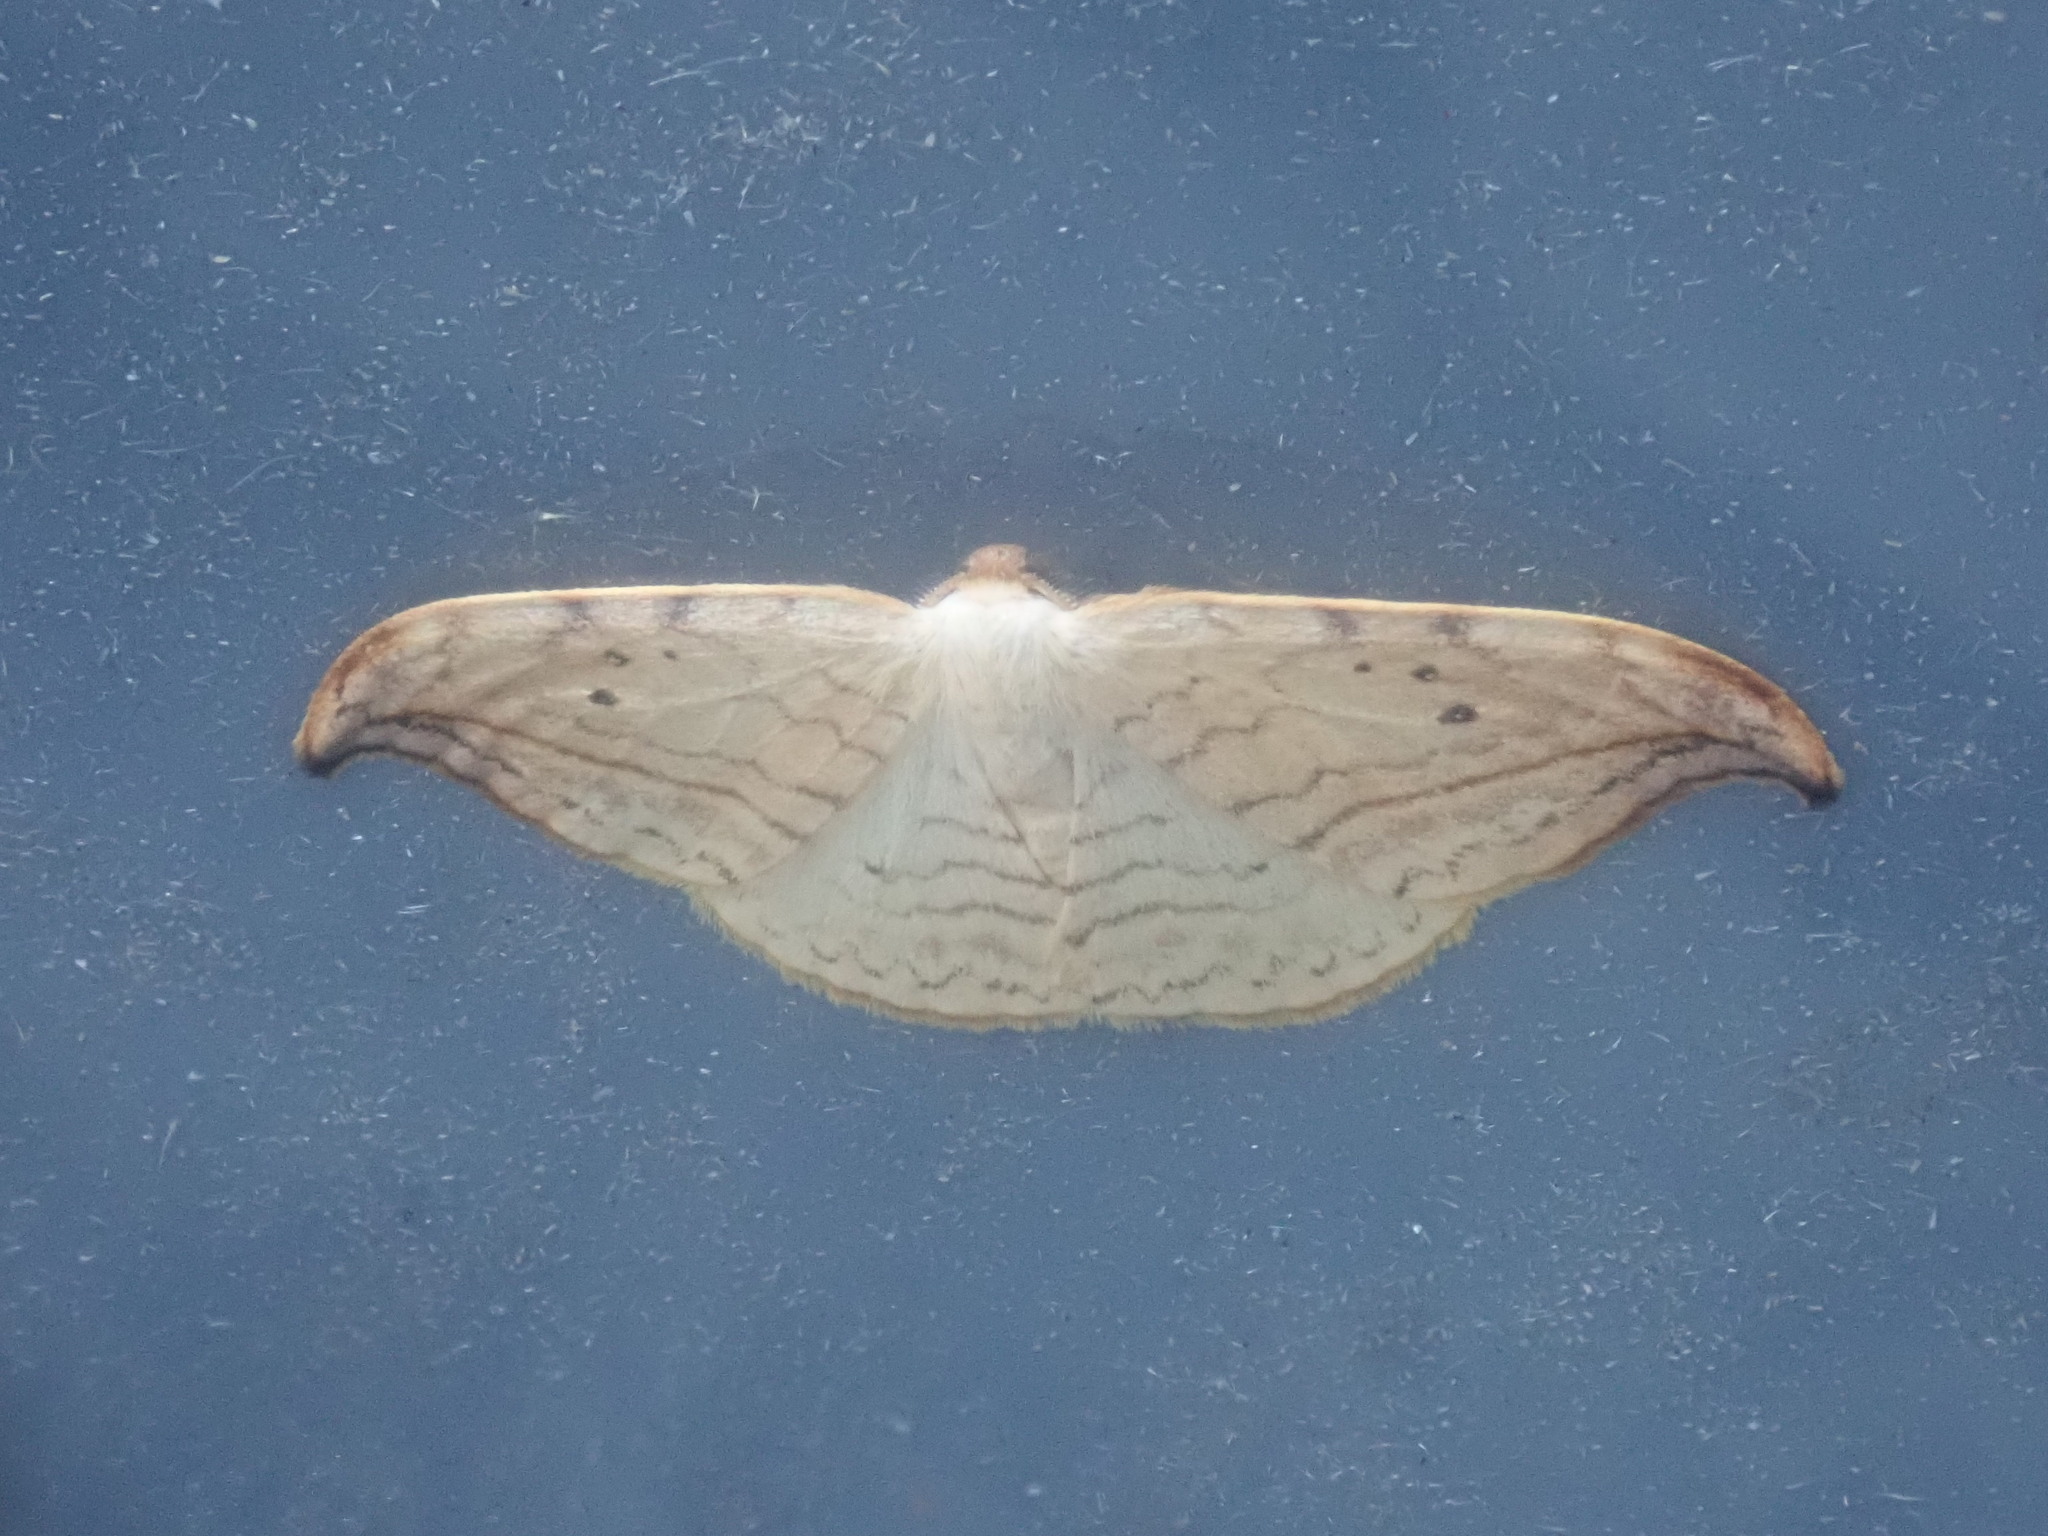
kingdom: Animalia
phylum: Arthropoda
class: Insecta
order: Lepidoptera
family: Drepanidae
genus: Drepana
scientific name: Drepana arcuata
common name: Arched hooktip moth
